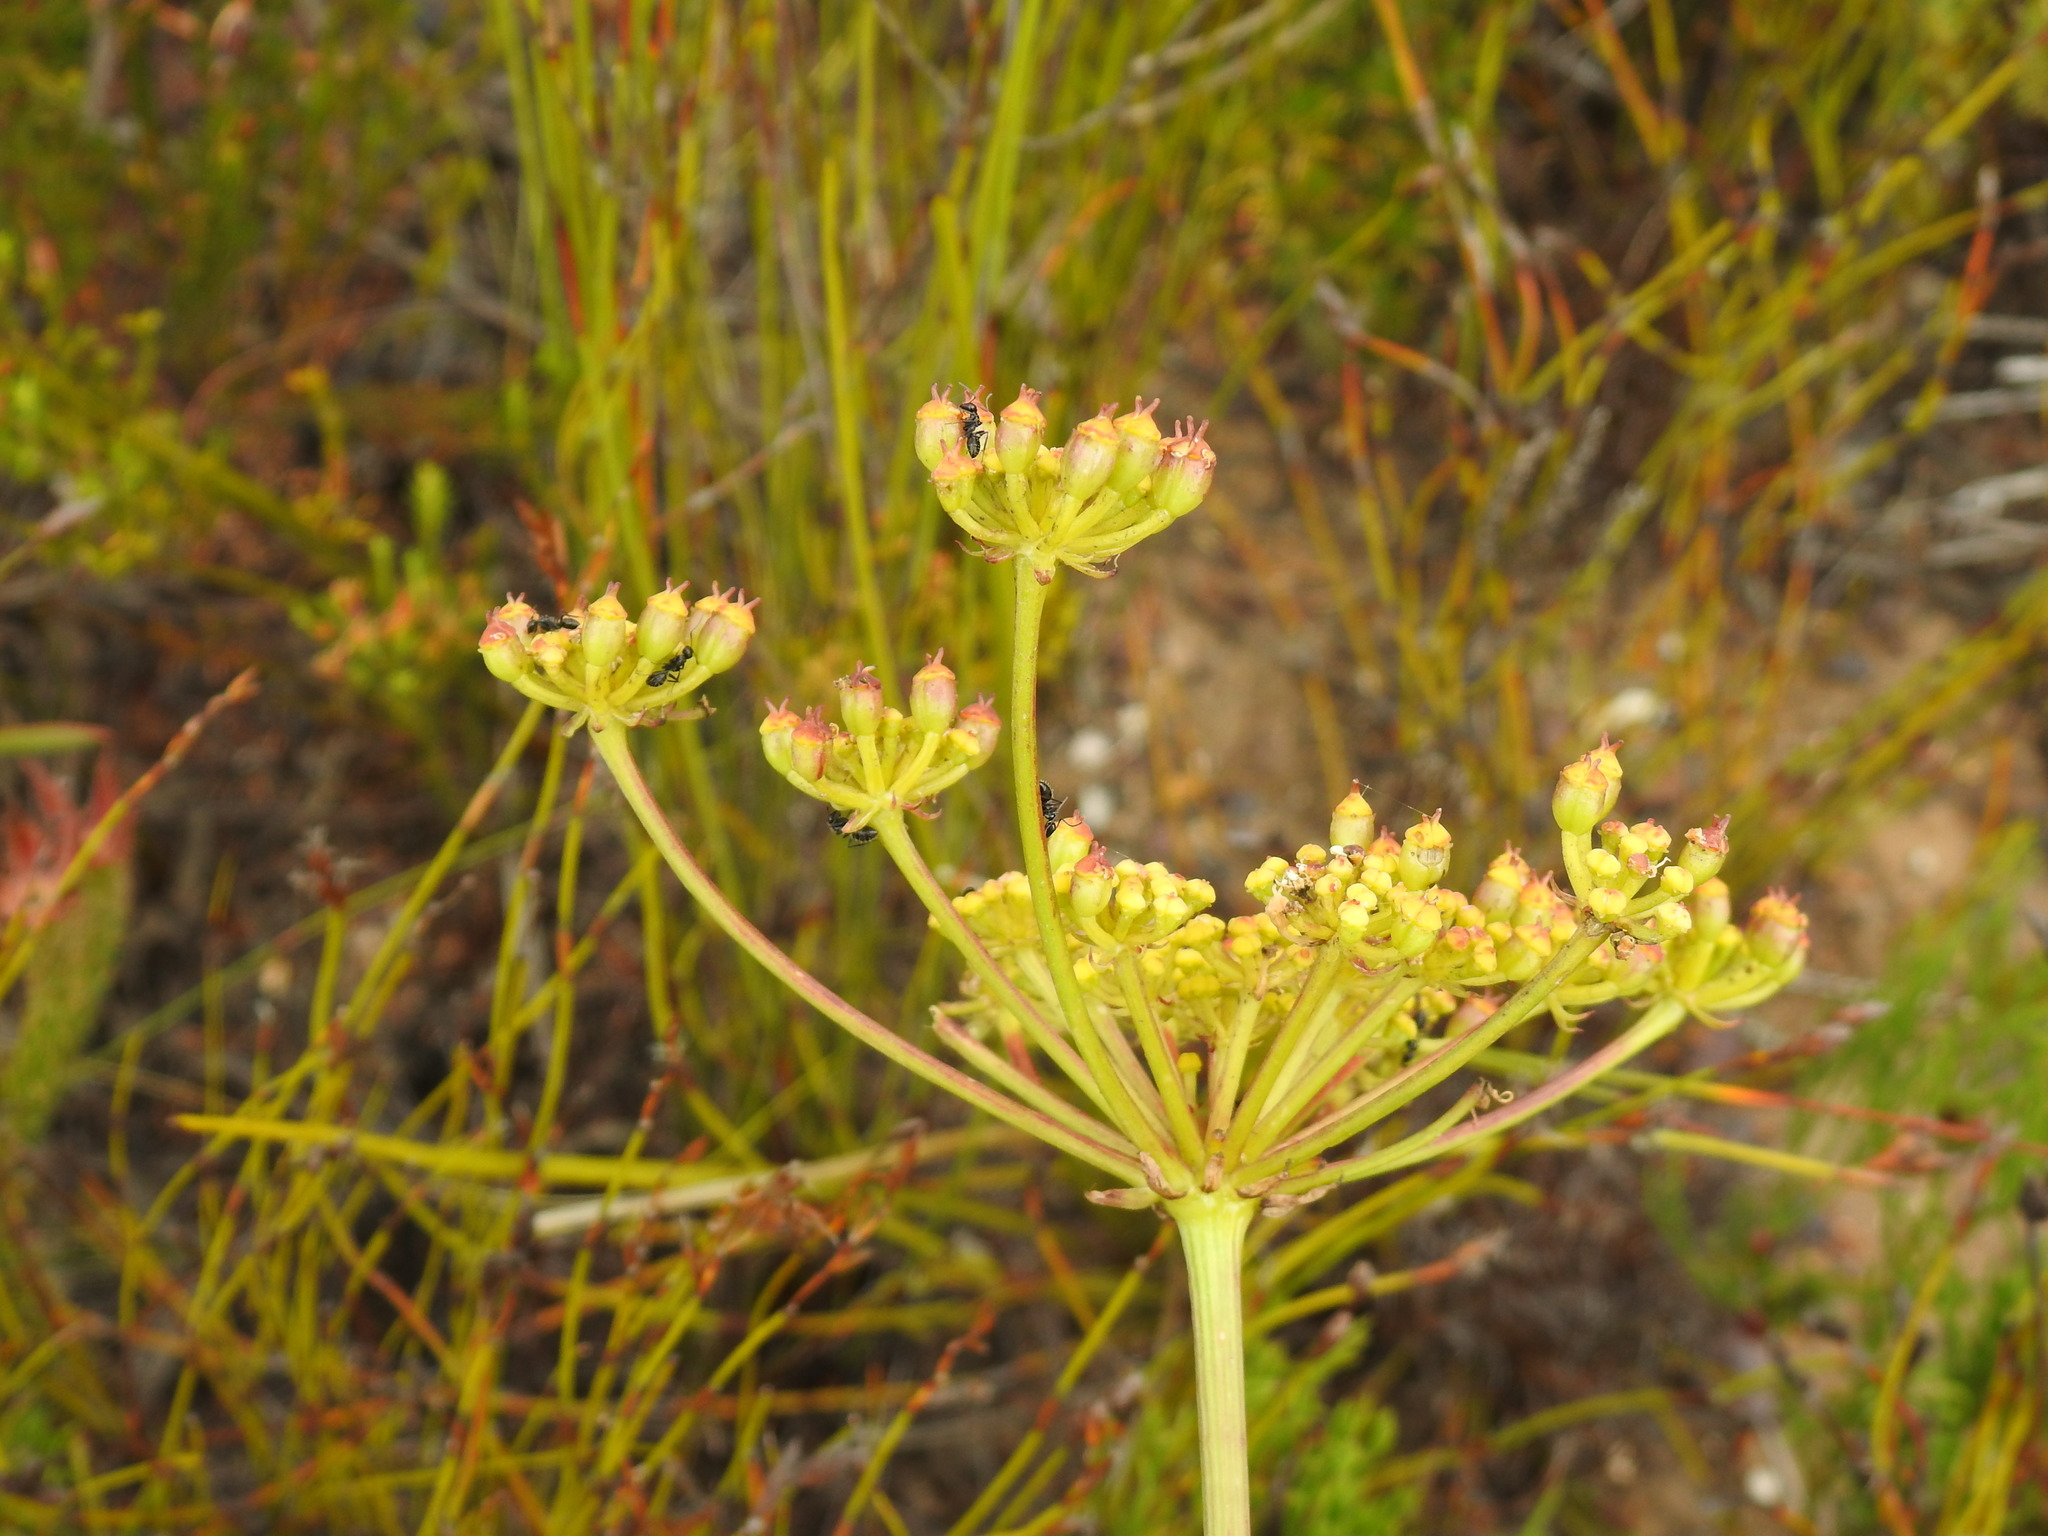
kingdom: Plantae
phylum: Tracheophyta
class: Magnoliopsida
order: Apiales
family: Apiaceae
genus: Nanobubon
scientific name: Nanobubon strictum
